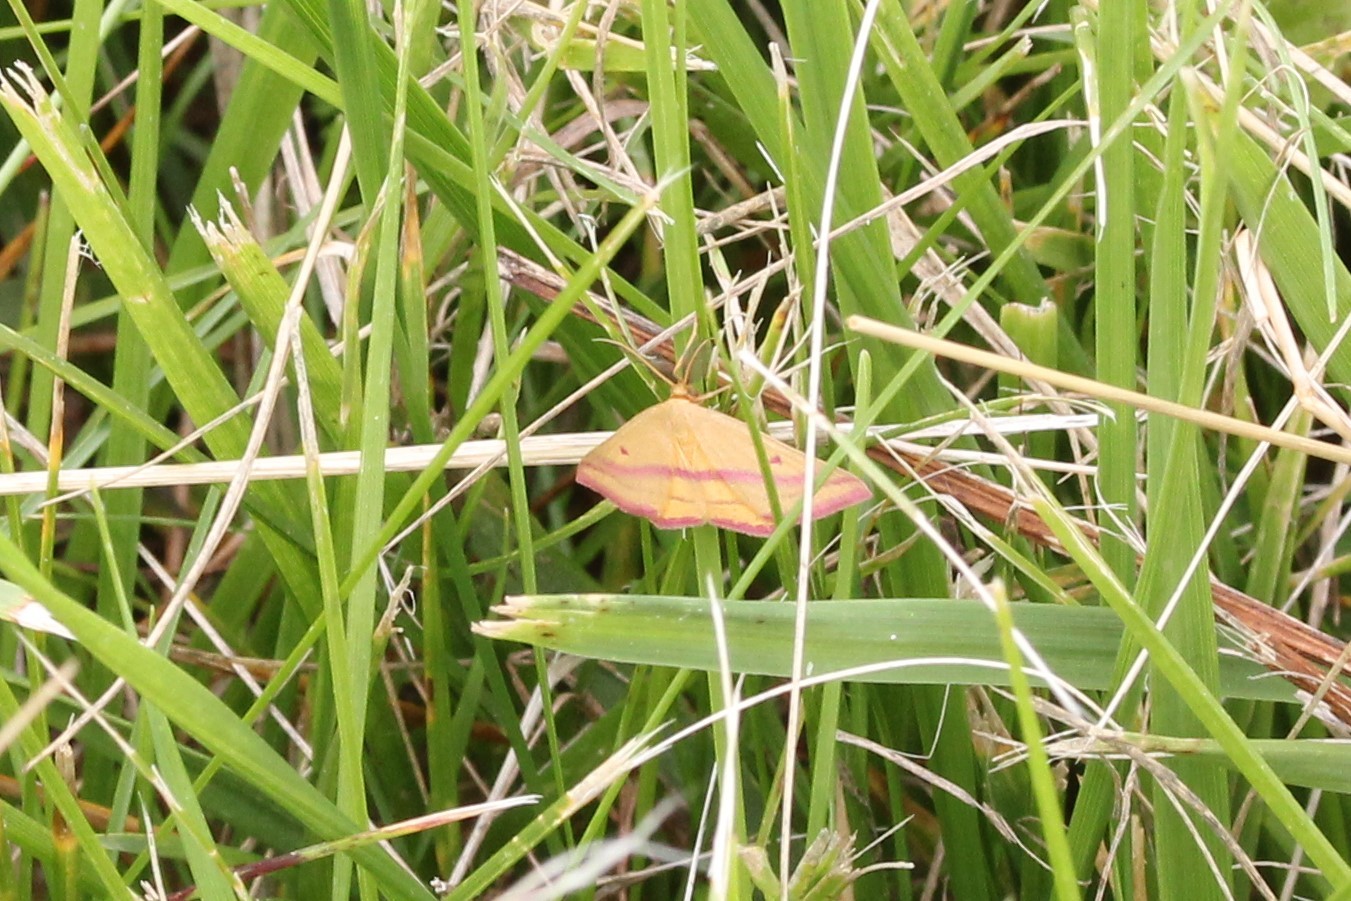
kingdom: Animalia
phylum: Arthropoda
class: Insecta
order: Lepidoptera
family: Geometridae
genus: Haematopis
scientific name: Haematopis grataria
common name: Chickweed geometer
